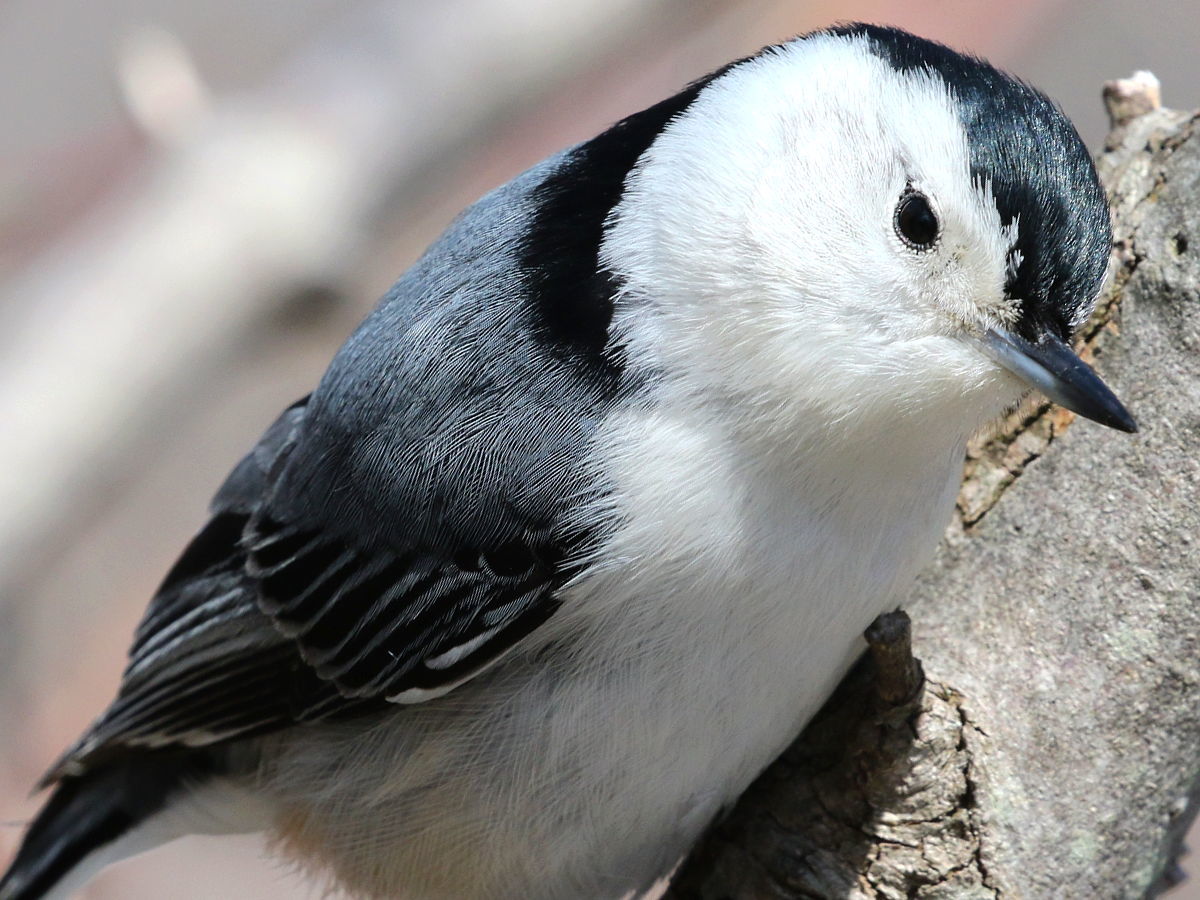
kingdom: Animalia
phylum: Chordata
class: Aves
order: Passeriformes
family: Sittidae
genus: Sitta
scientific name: Sitta carolinensis
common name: White-breasted nuthatch
